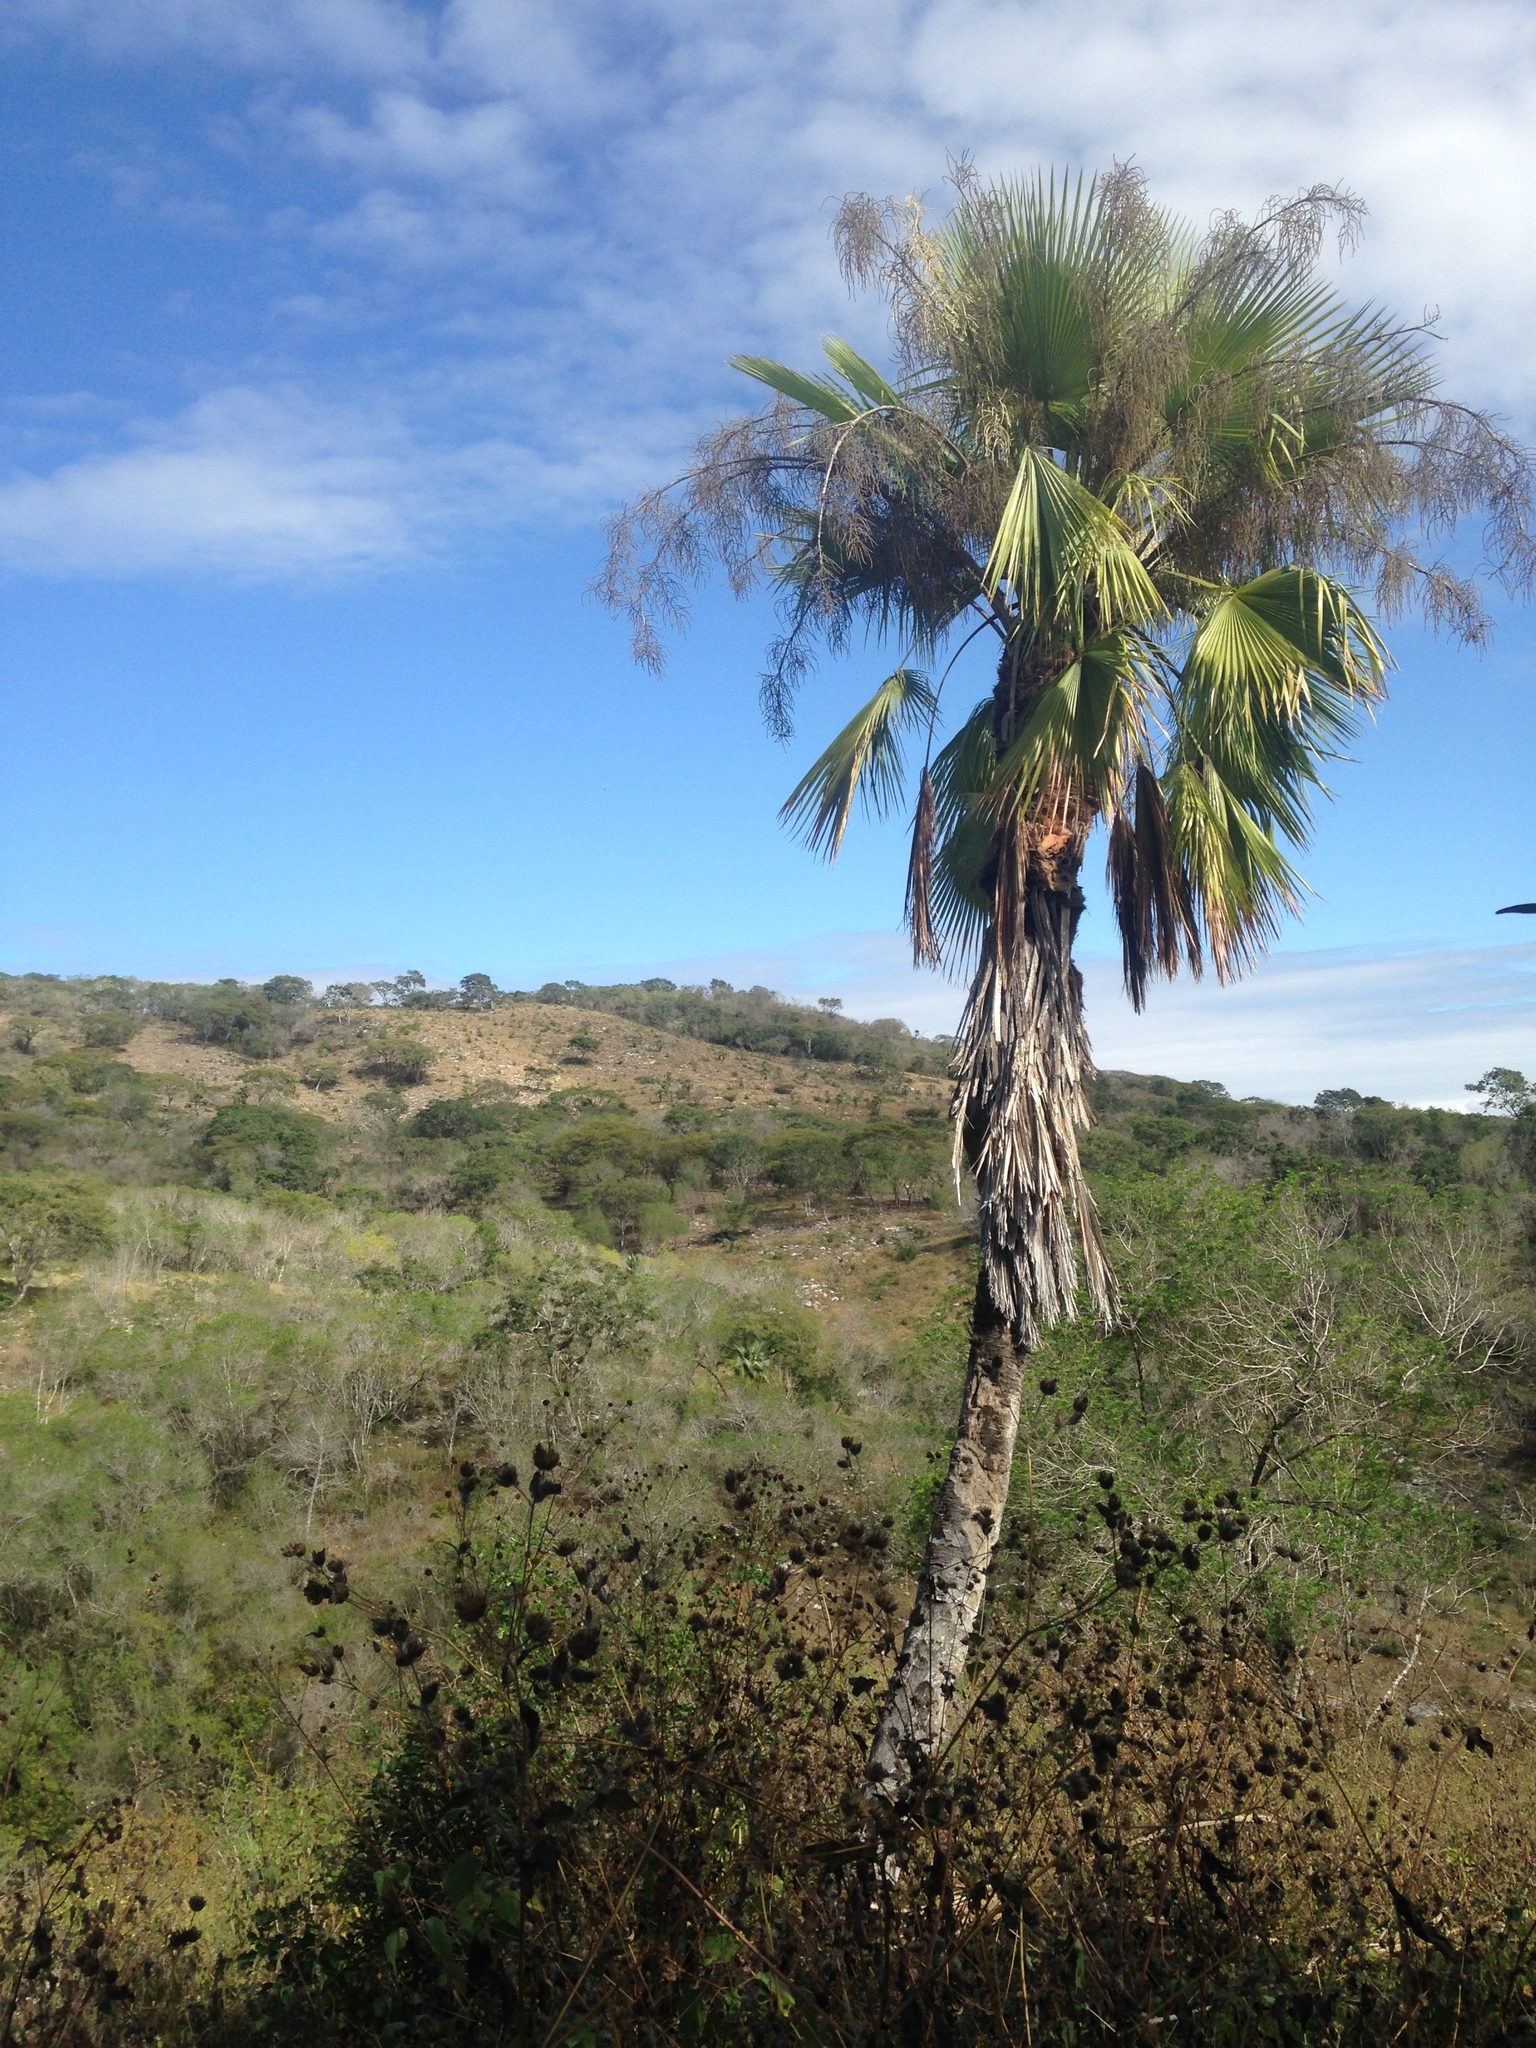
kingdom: Plantae
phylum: Tracheophyta
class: Liliopsida
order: Arecales
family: Arecaceae
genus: Brahea
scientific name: Brahea dulcis
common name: Apak palm
